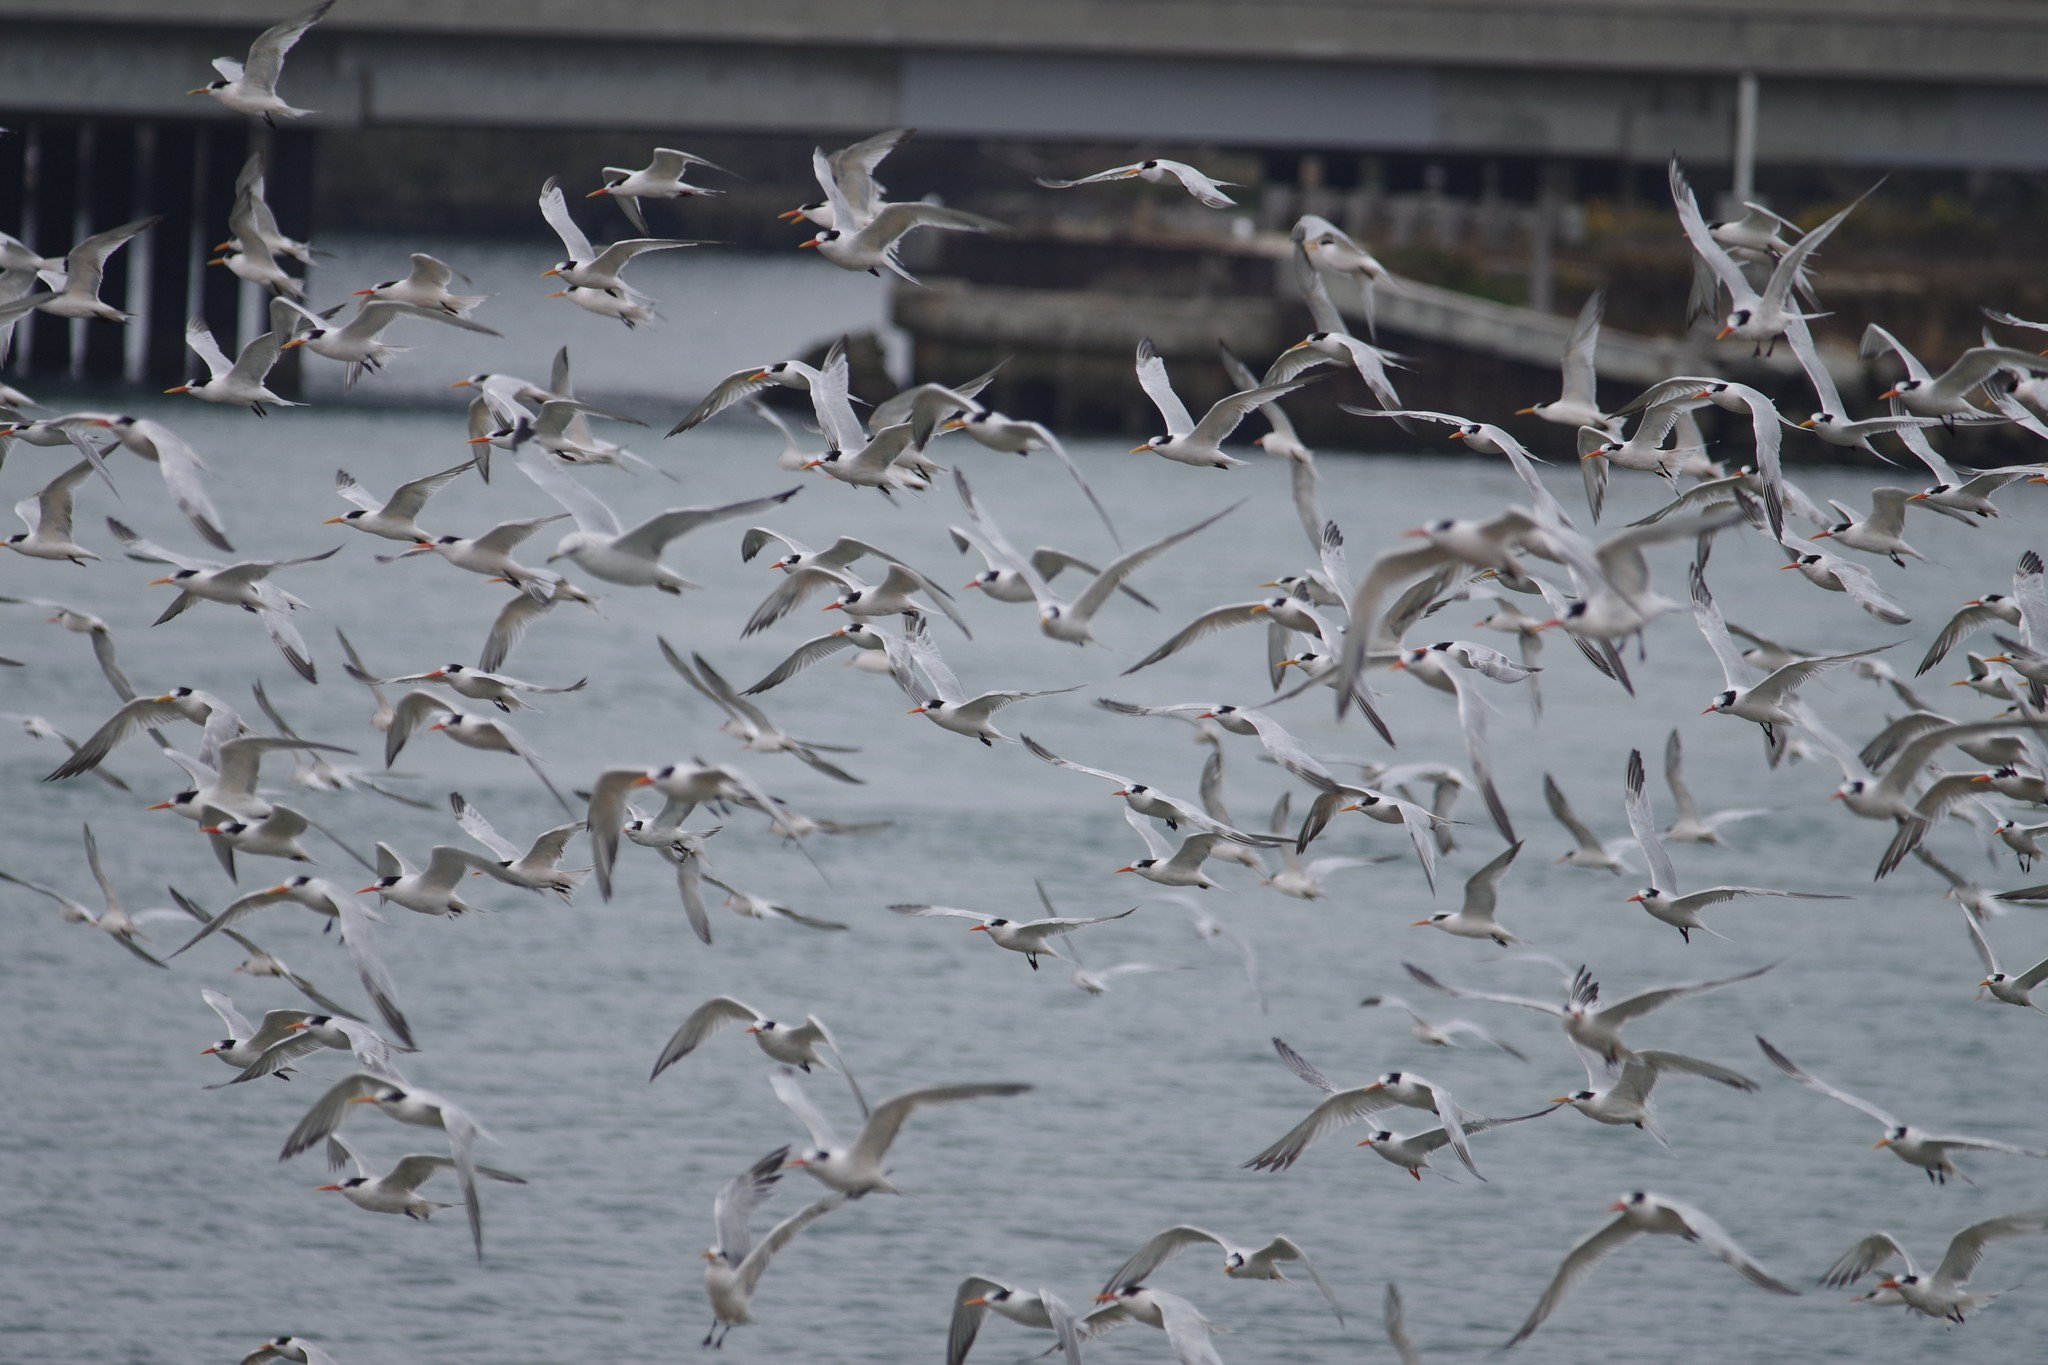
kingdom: Animalia
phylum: Chordata
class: Aves
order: Charadriiformes
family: Laridae
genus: Thalasseus
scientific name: Thalasseus elegans
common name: Elegant tern
